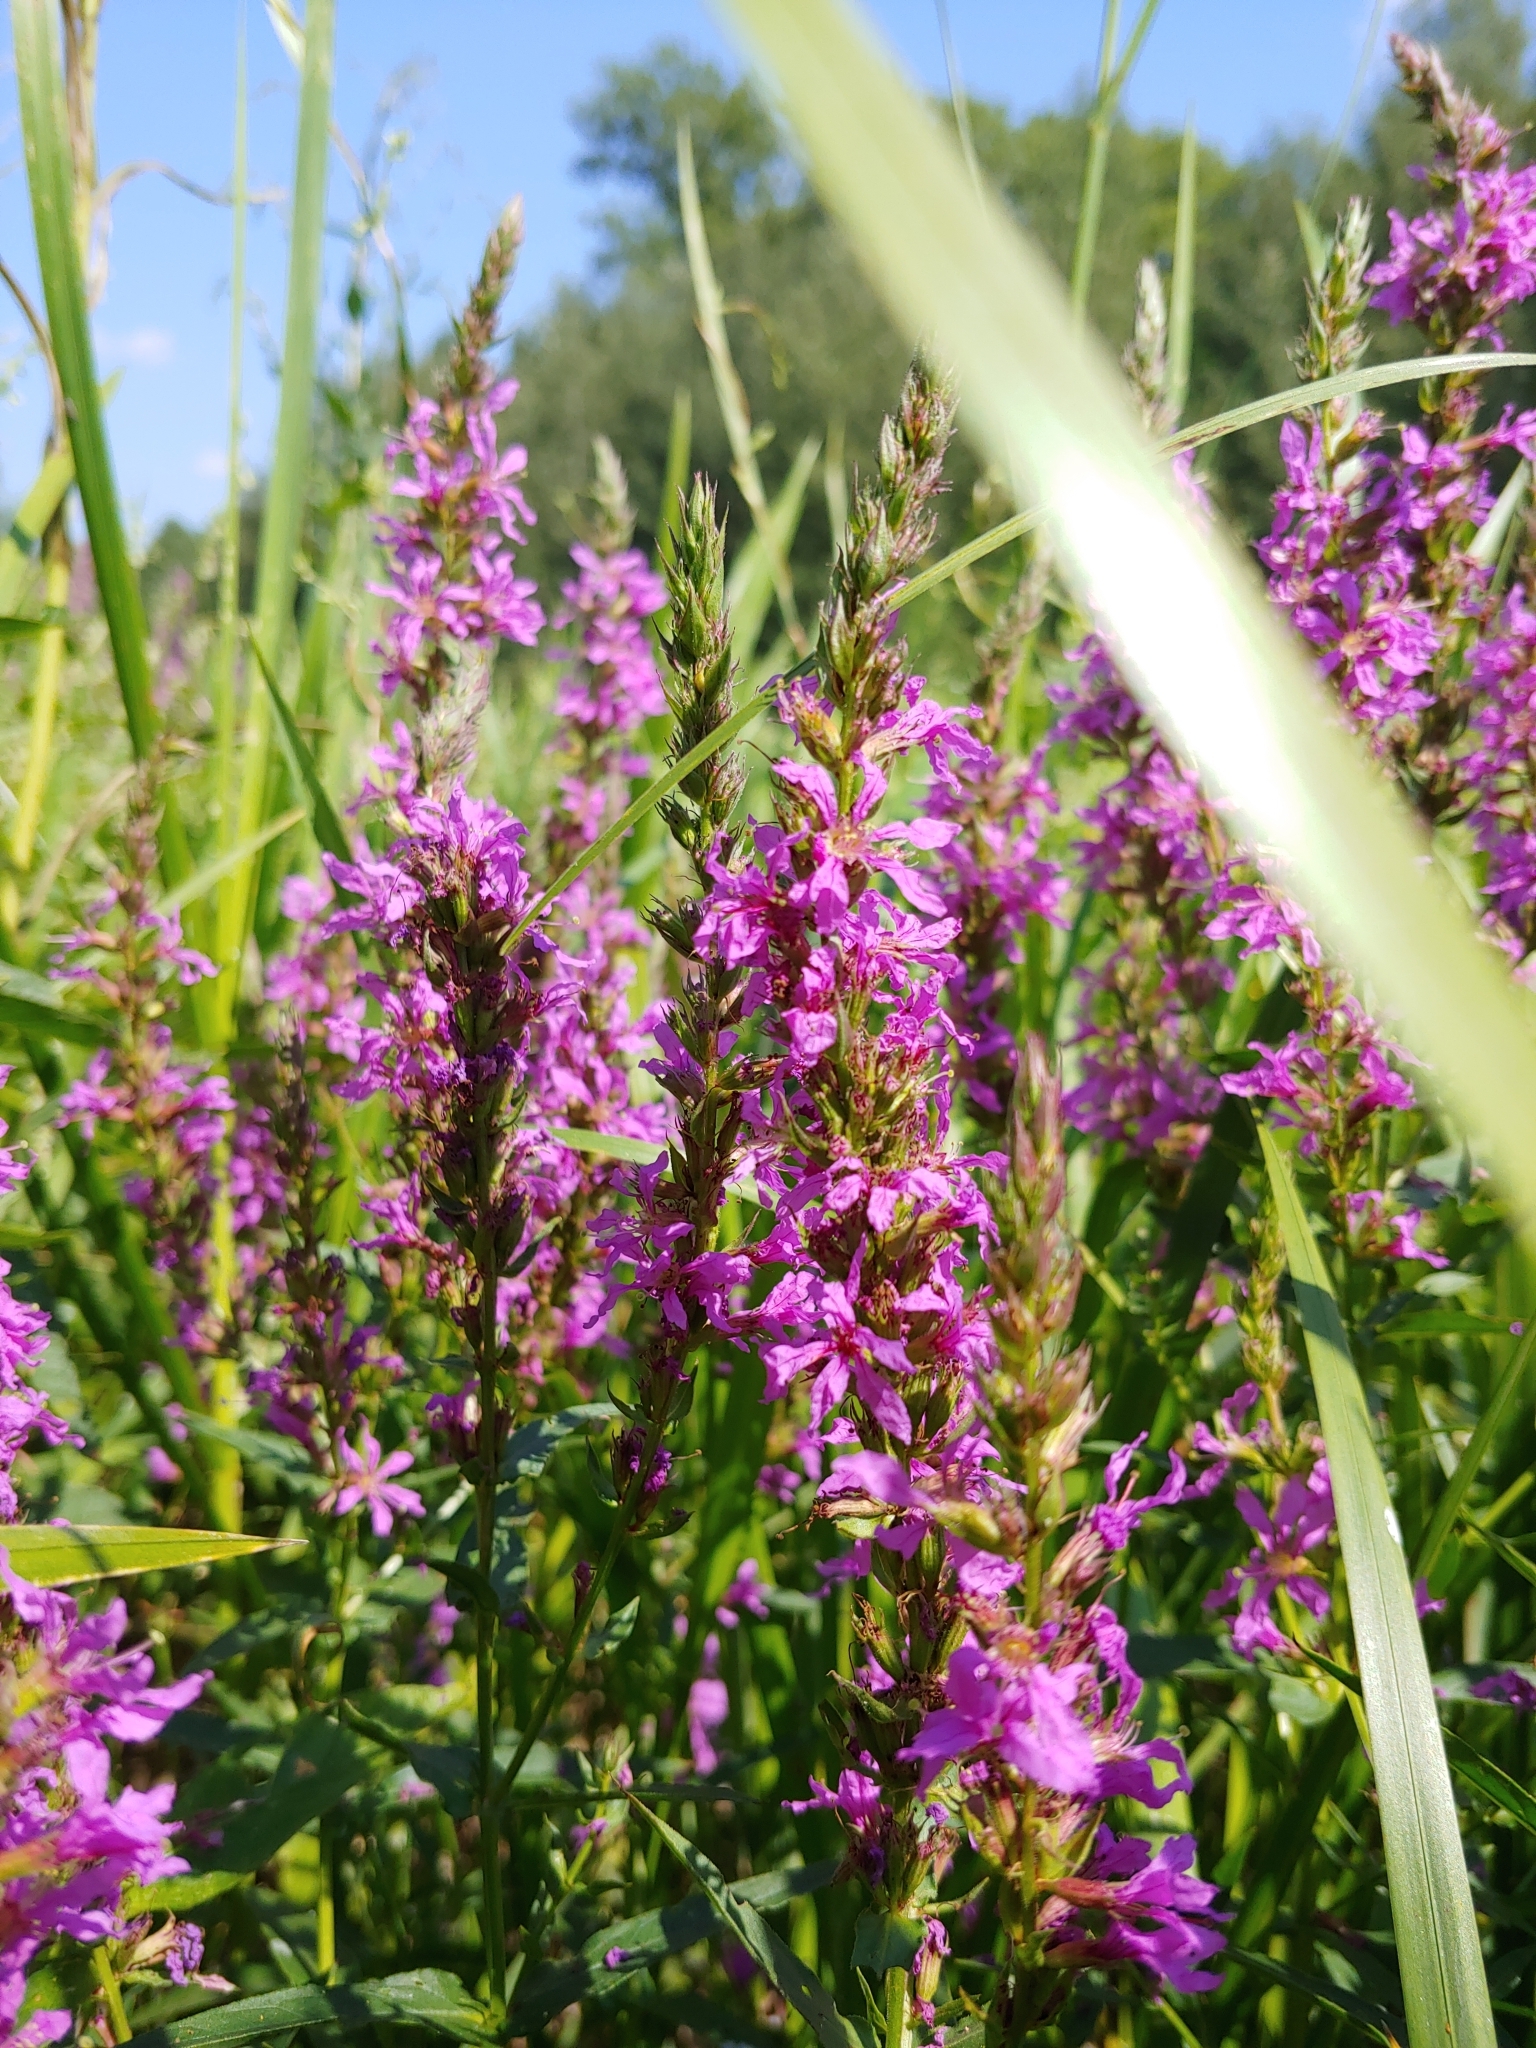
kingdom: Plantae
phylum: Tracheophyta
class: Magnoliopsida
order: Myrtales
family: Lythraceae
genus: Lythrum
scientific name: Lythrum salicaria
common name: Purple loosestrife
